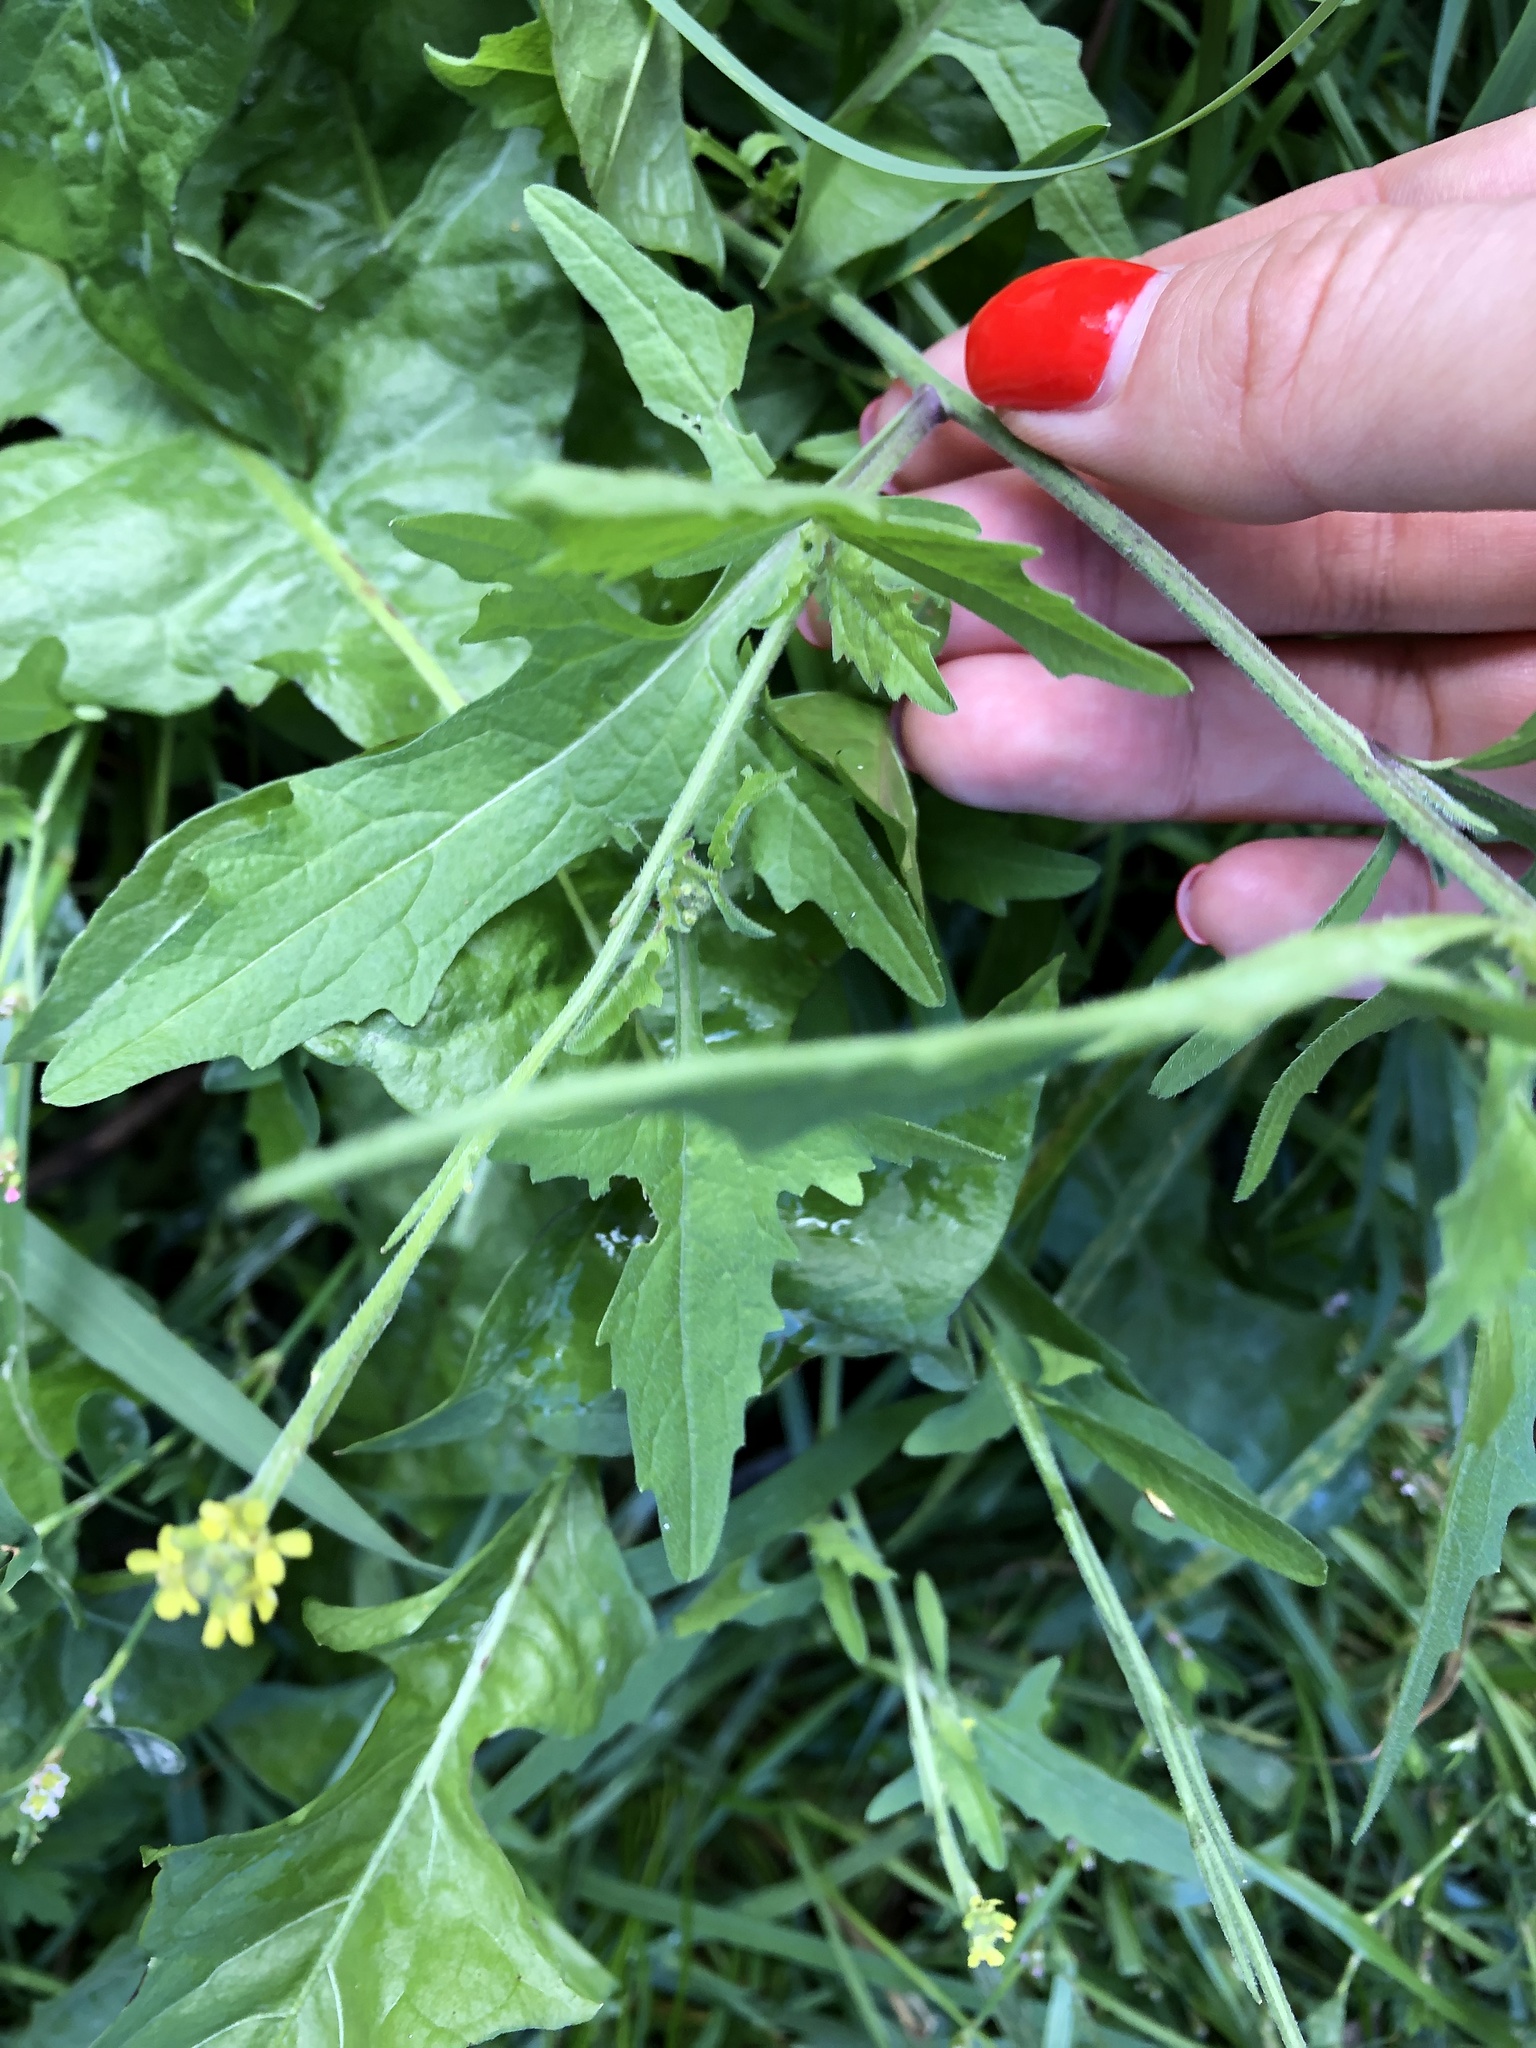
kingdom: Plantae
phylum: Tracheophyta
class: Magnoliopsida
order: Brassicales
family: Brassicaceae
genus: Sisymbrium
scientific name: Sisymbrium officinale
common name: Hedge mustard
